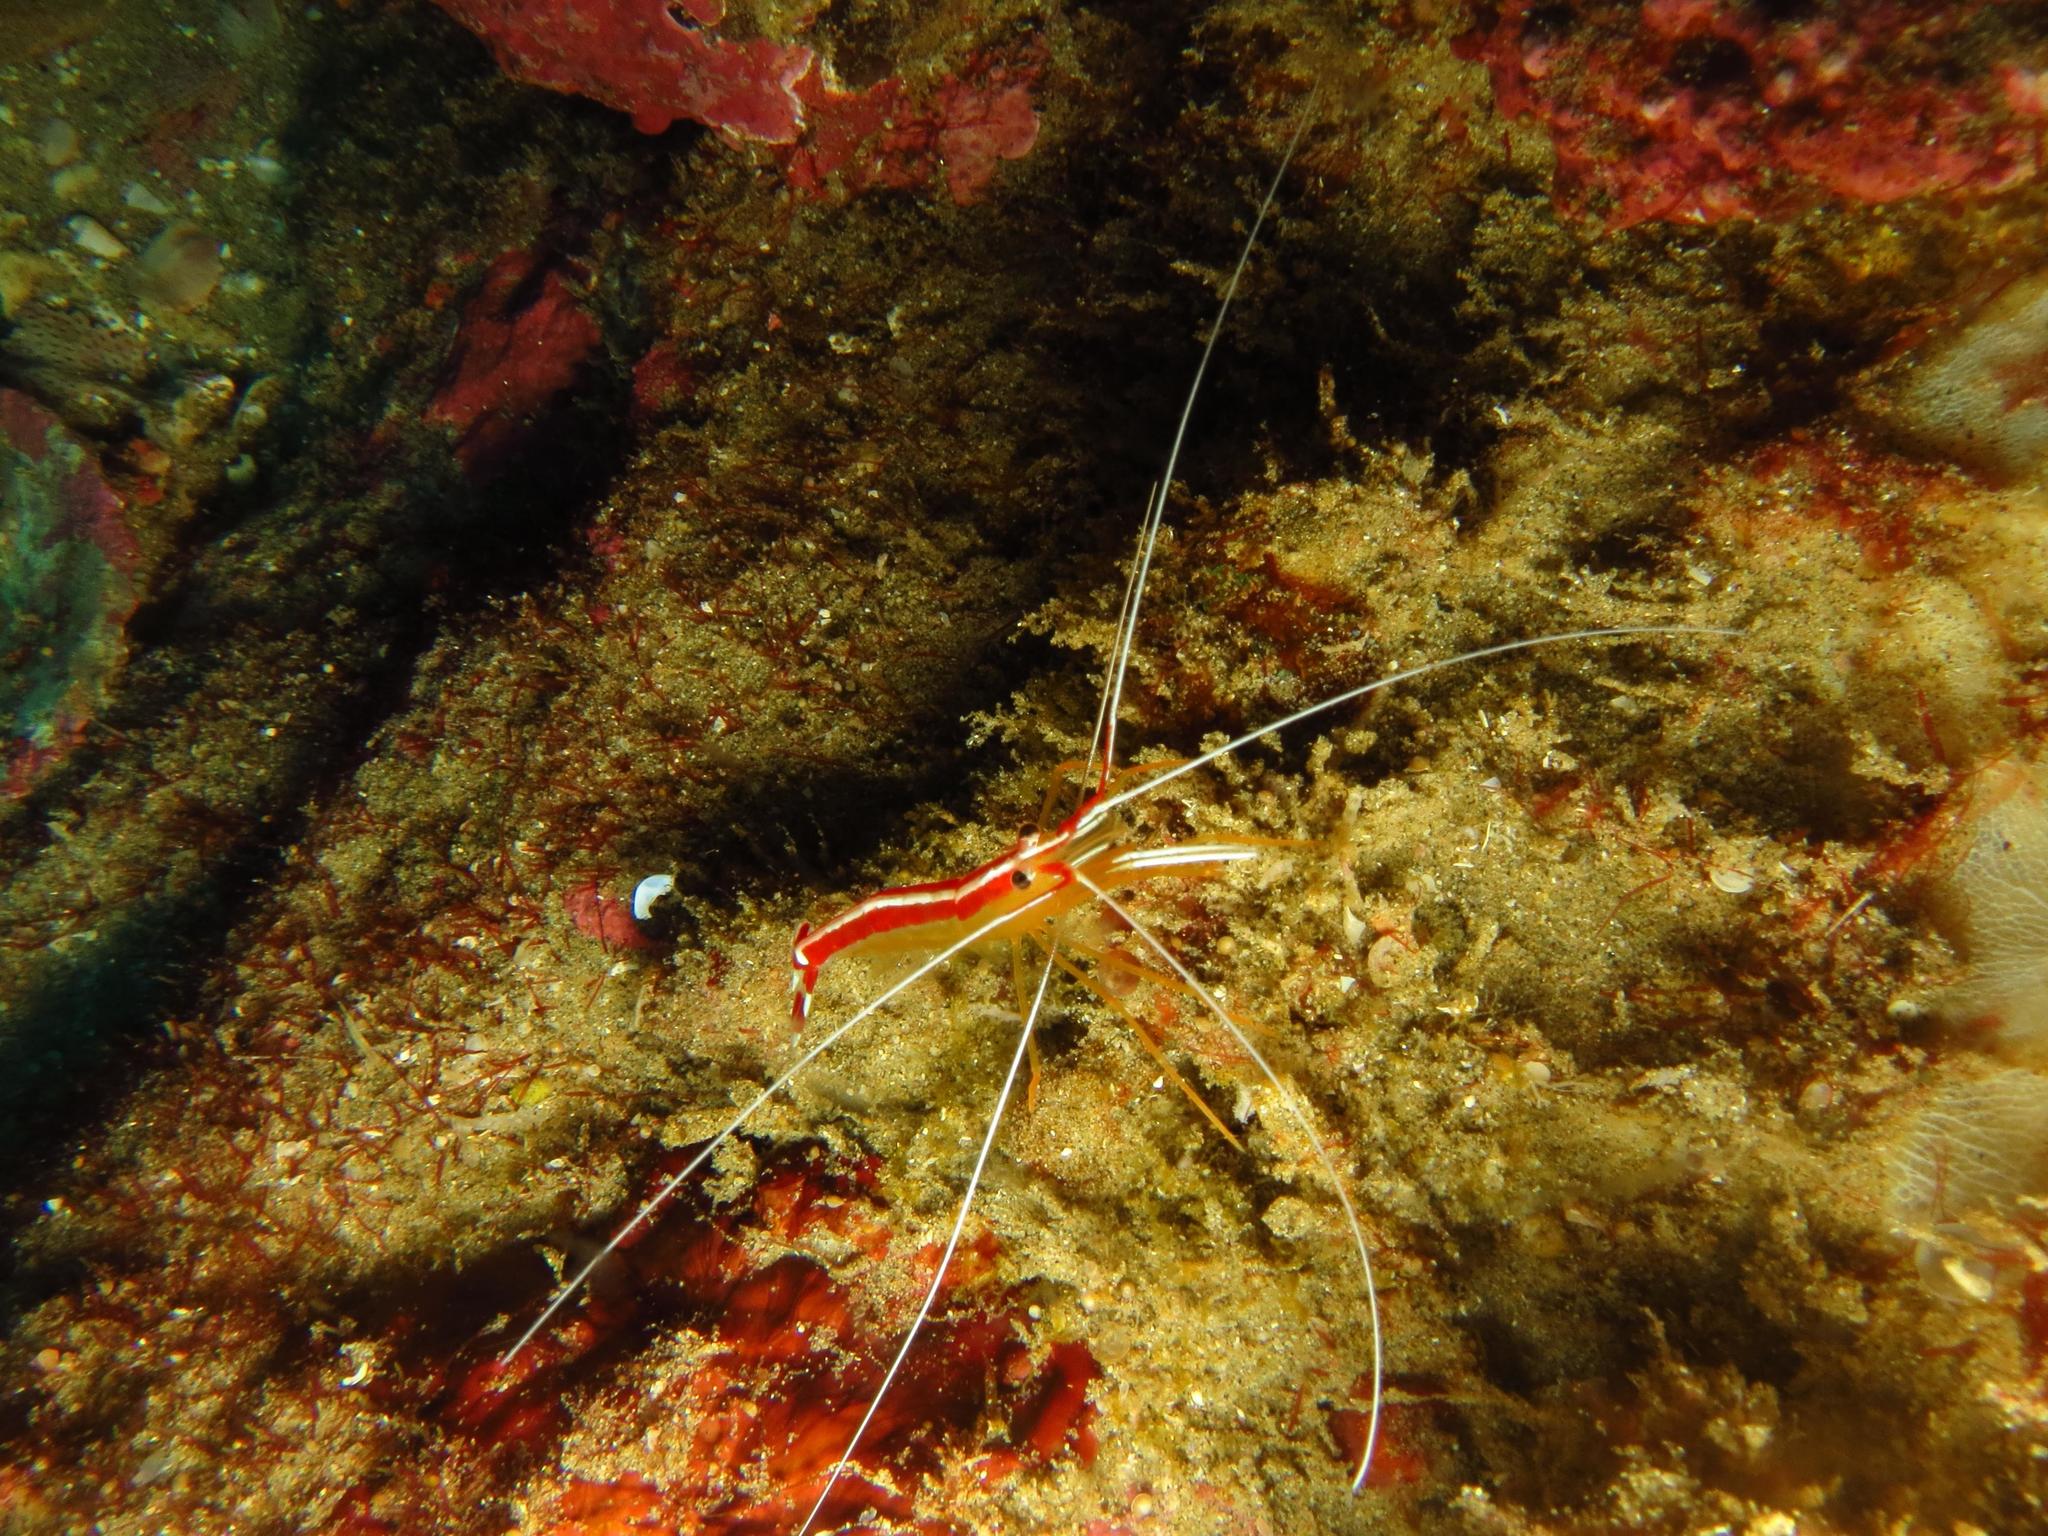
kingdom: Animalia
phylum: Arthropoda
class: Malacostraca
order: Decapoda
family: Lysmatidae
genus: Lysmata
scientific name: Lysmata amboinensis
